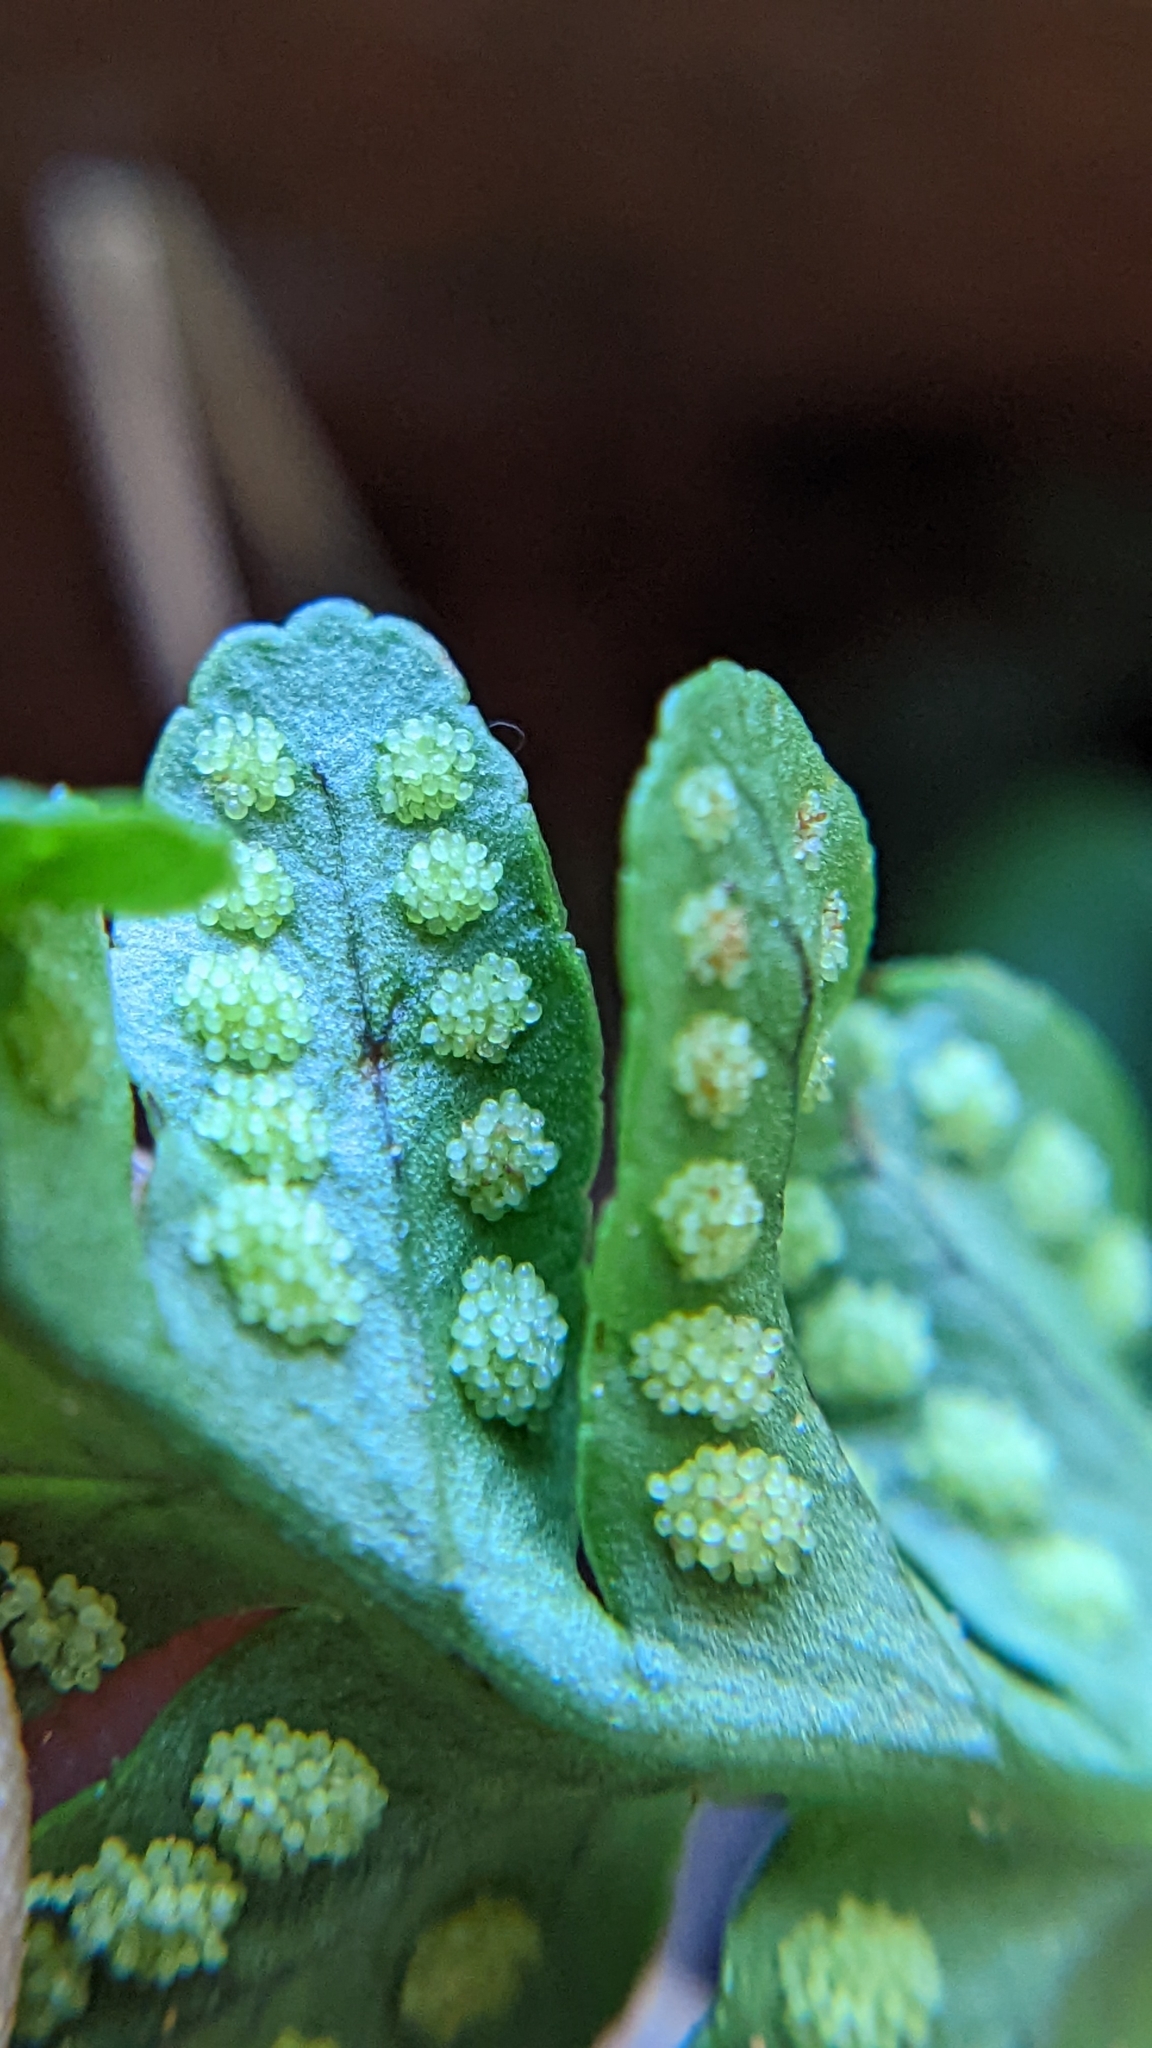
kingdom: Plantae
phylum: Tracheophyta
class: Polypodiopsida
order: Polypodiales
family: Polypodiaceae
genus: Polypodium
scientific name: Polypodium hesperium
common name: Western polypody
